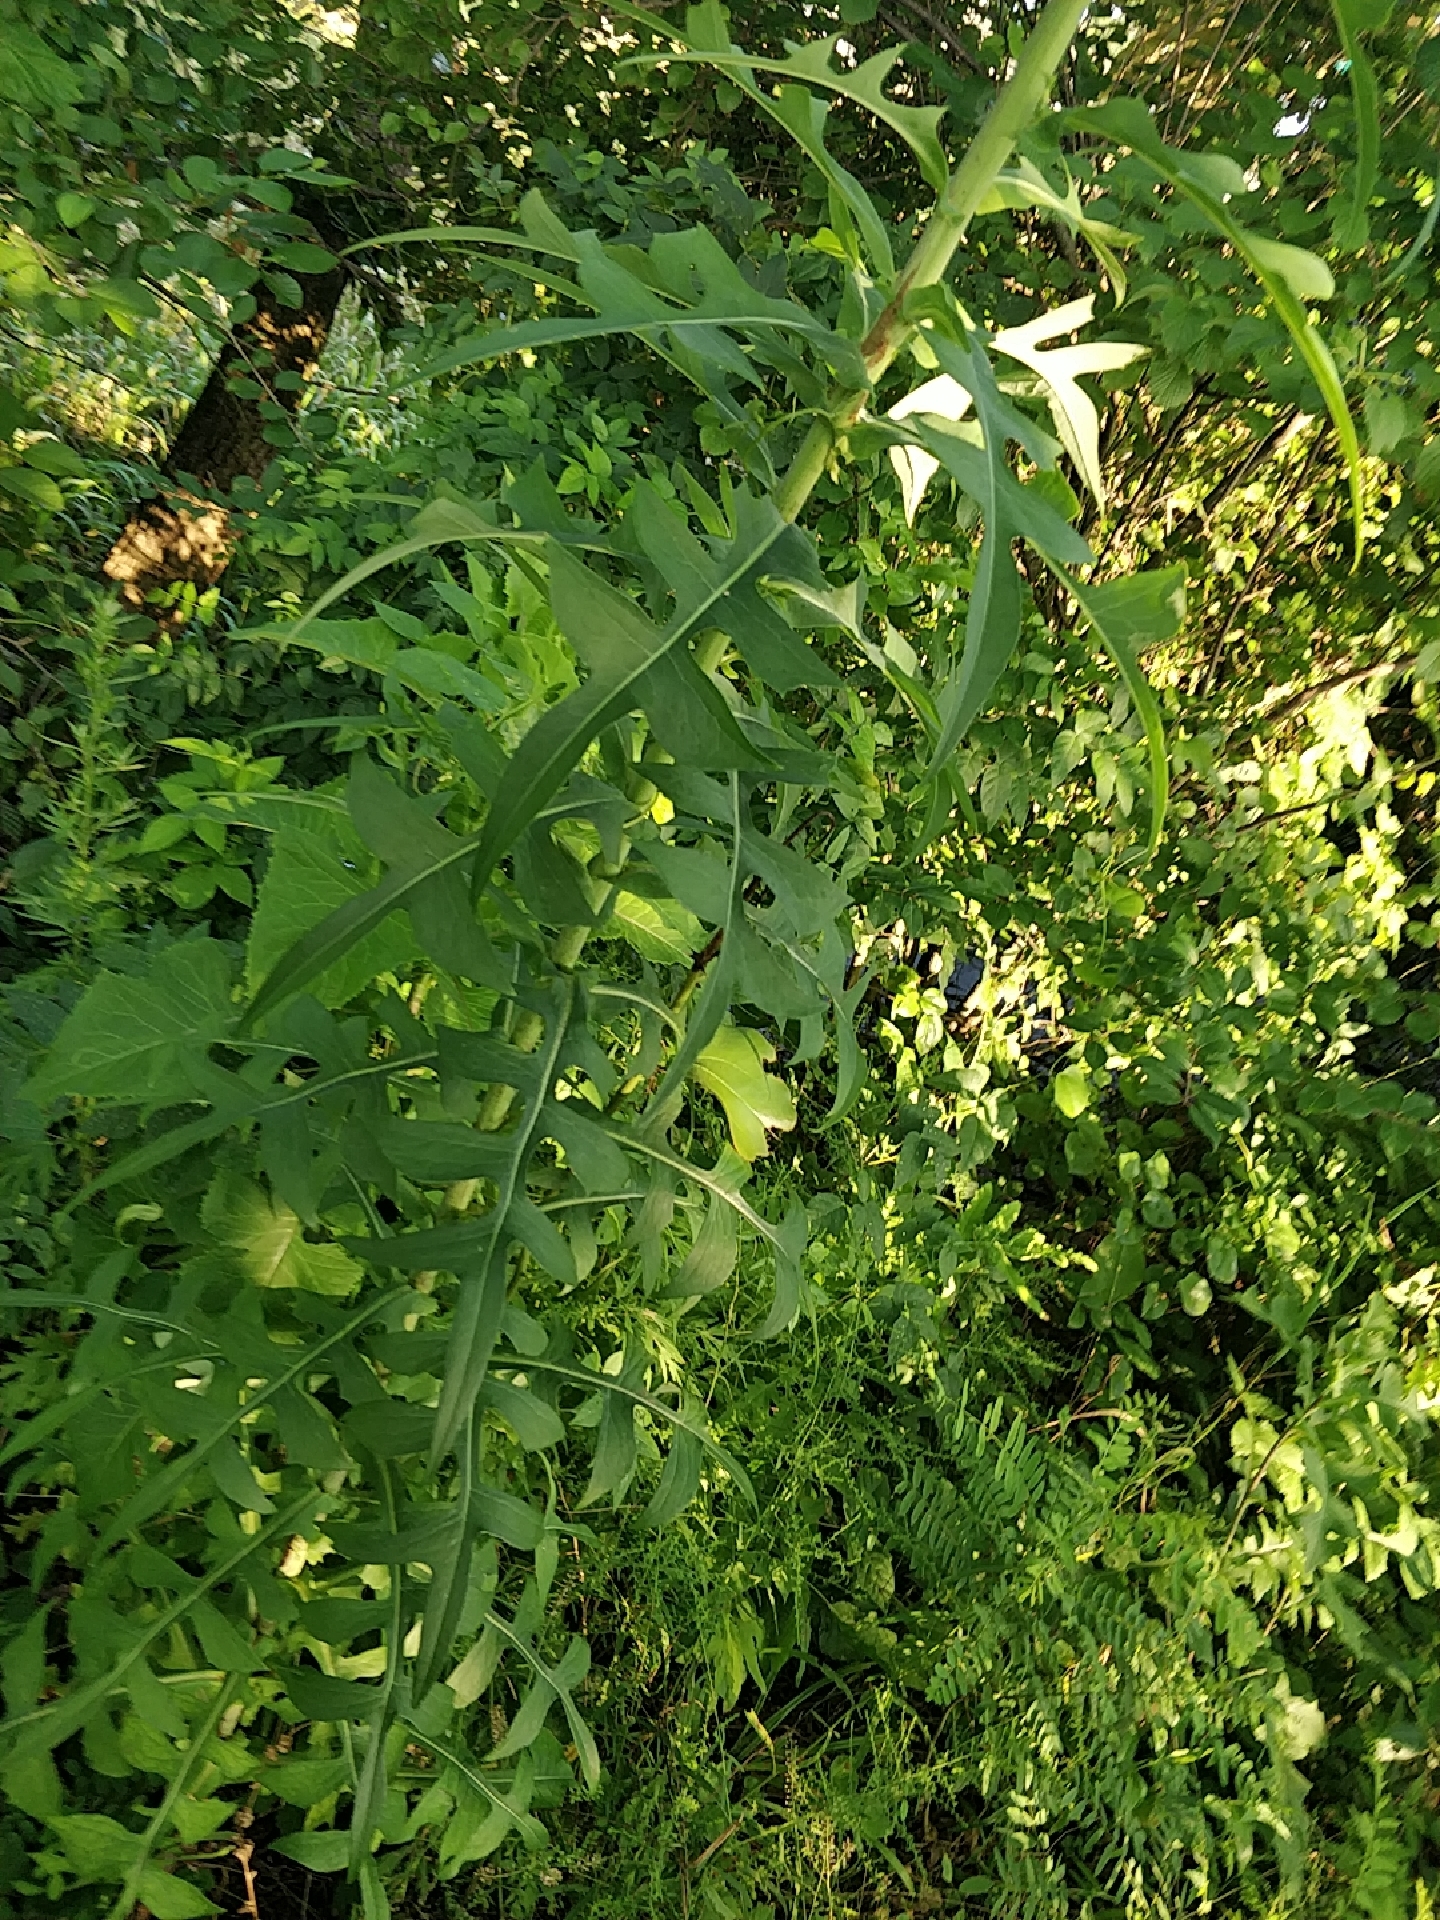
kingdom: Plantae
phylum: Tracheophyta
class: Magnoliopsida
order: Asterales
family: Asteraceae
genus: Lactuca
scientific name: Lactuca canadensis
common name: Canada lettuce
